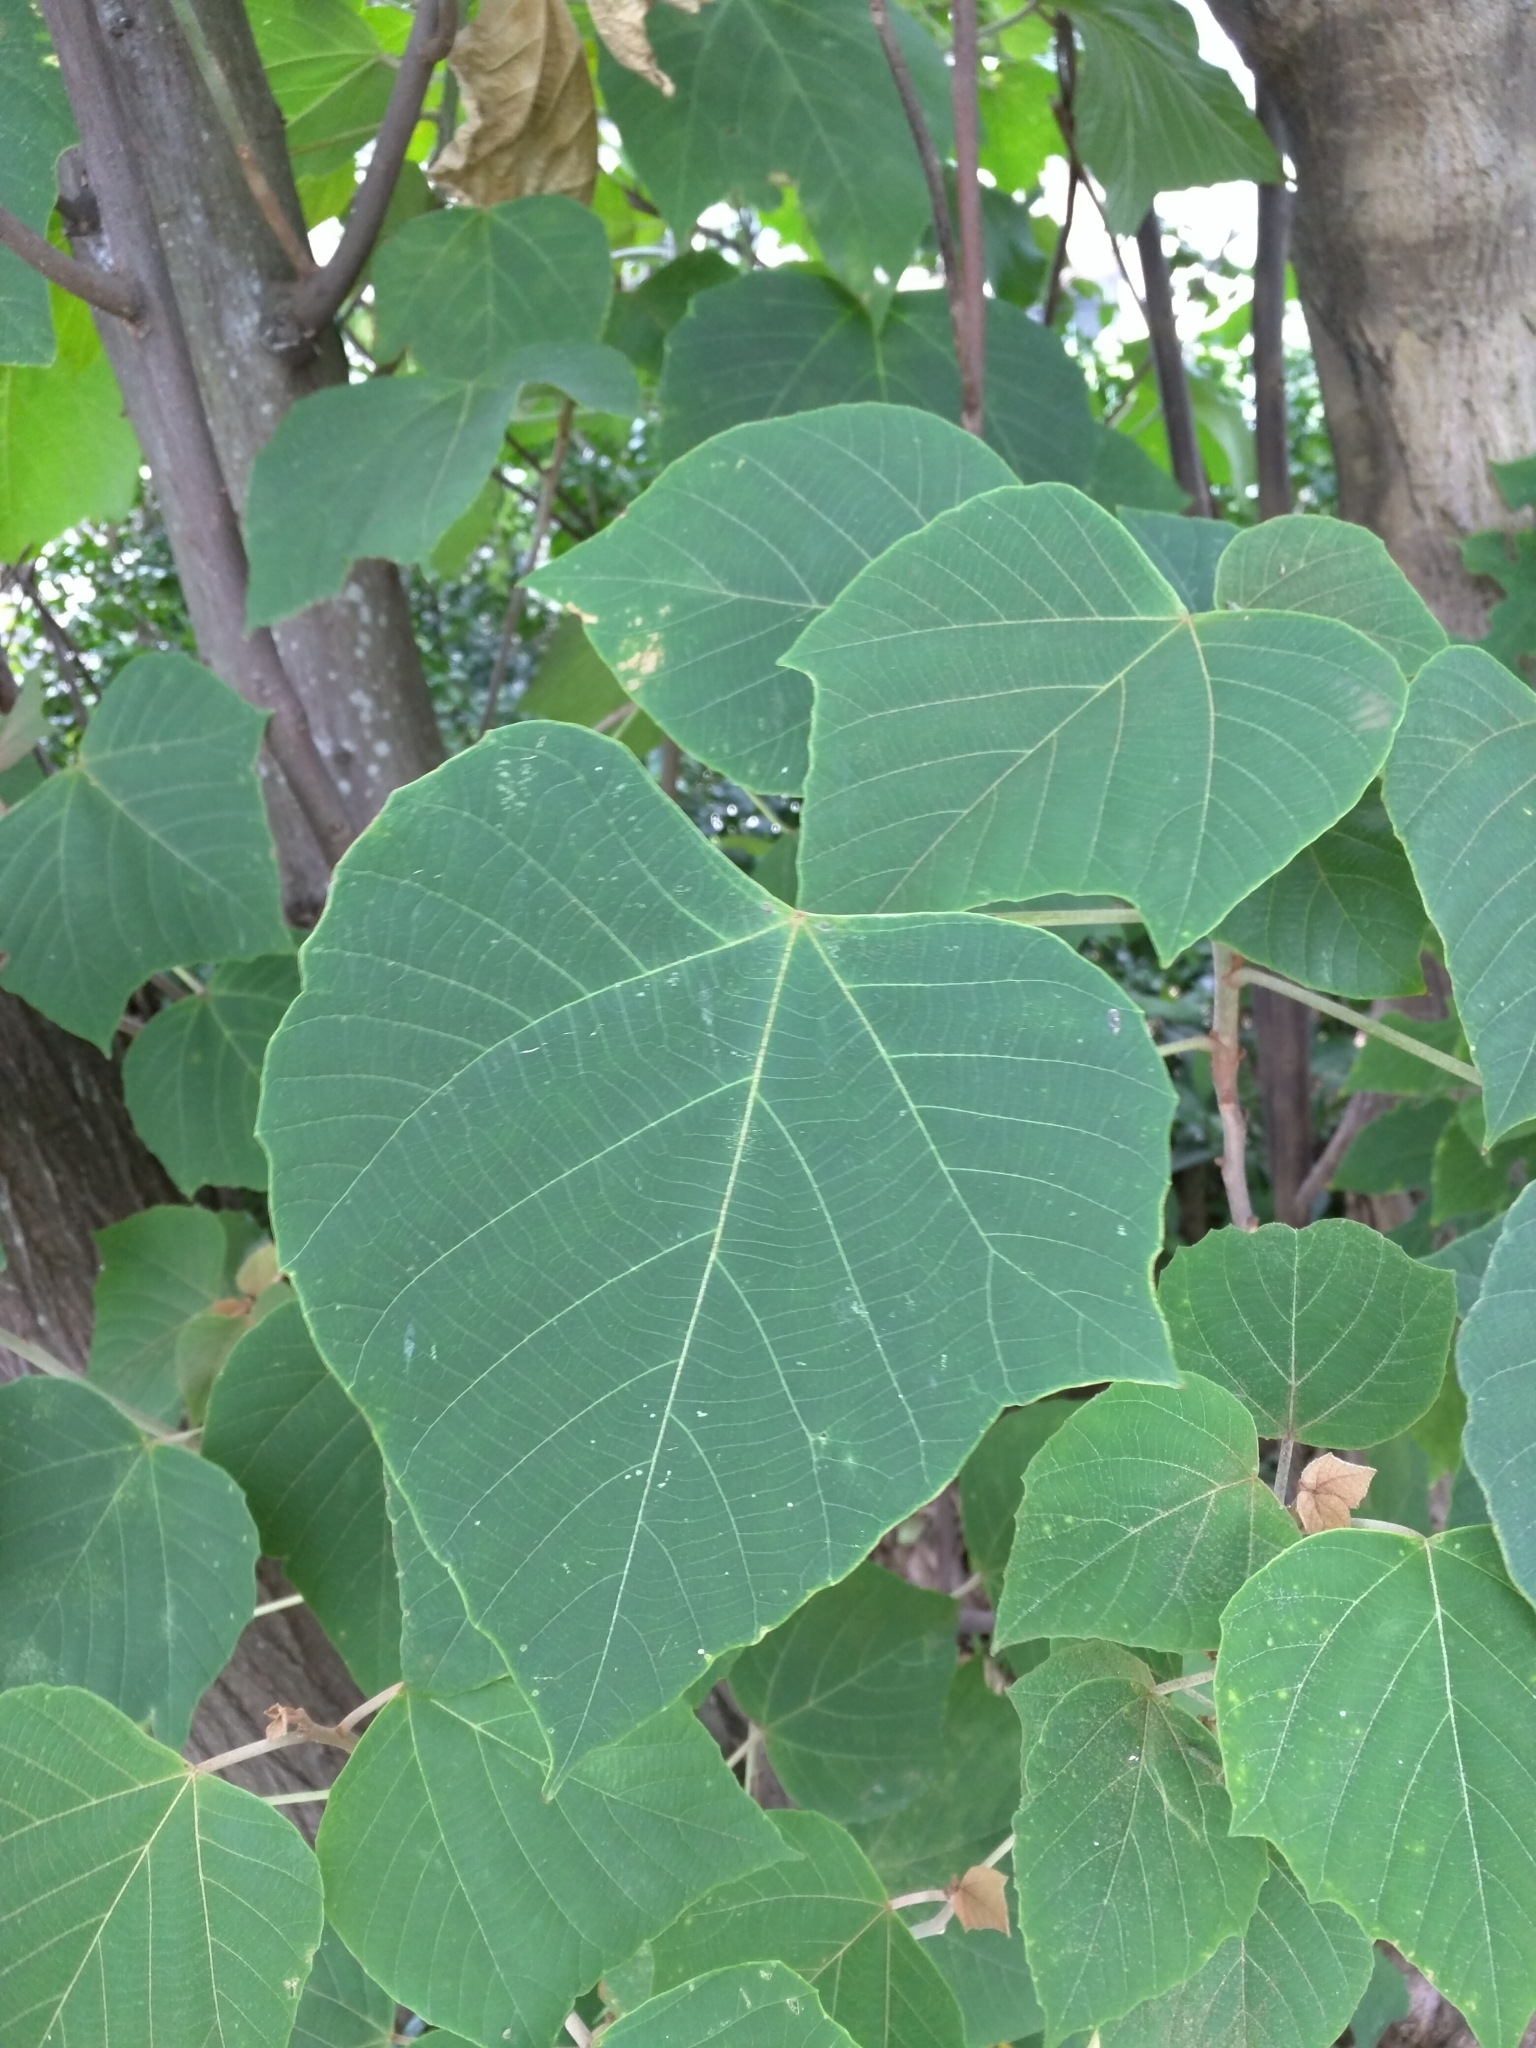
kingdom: Plantae
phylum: Tracheophyta
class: Magnoliopsida
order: Malpighiales
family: Euphorbiaceae
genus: Mallotus
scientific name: Mallotus japonicus
